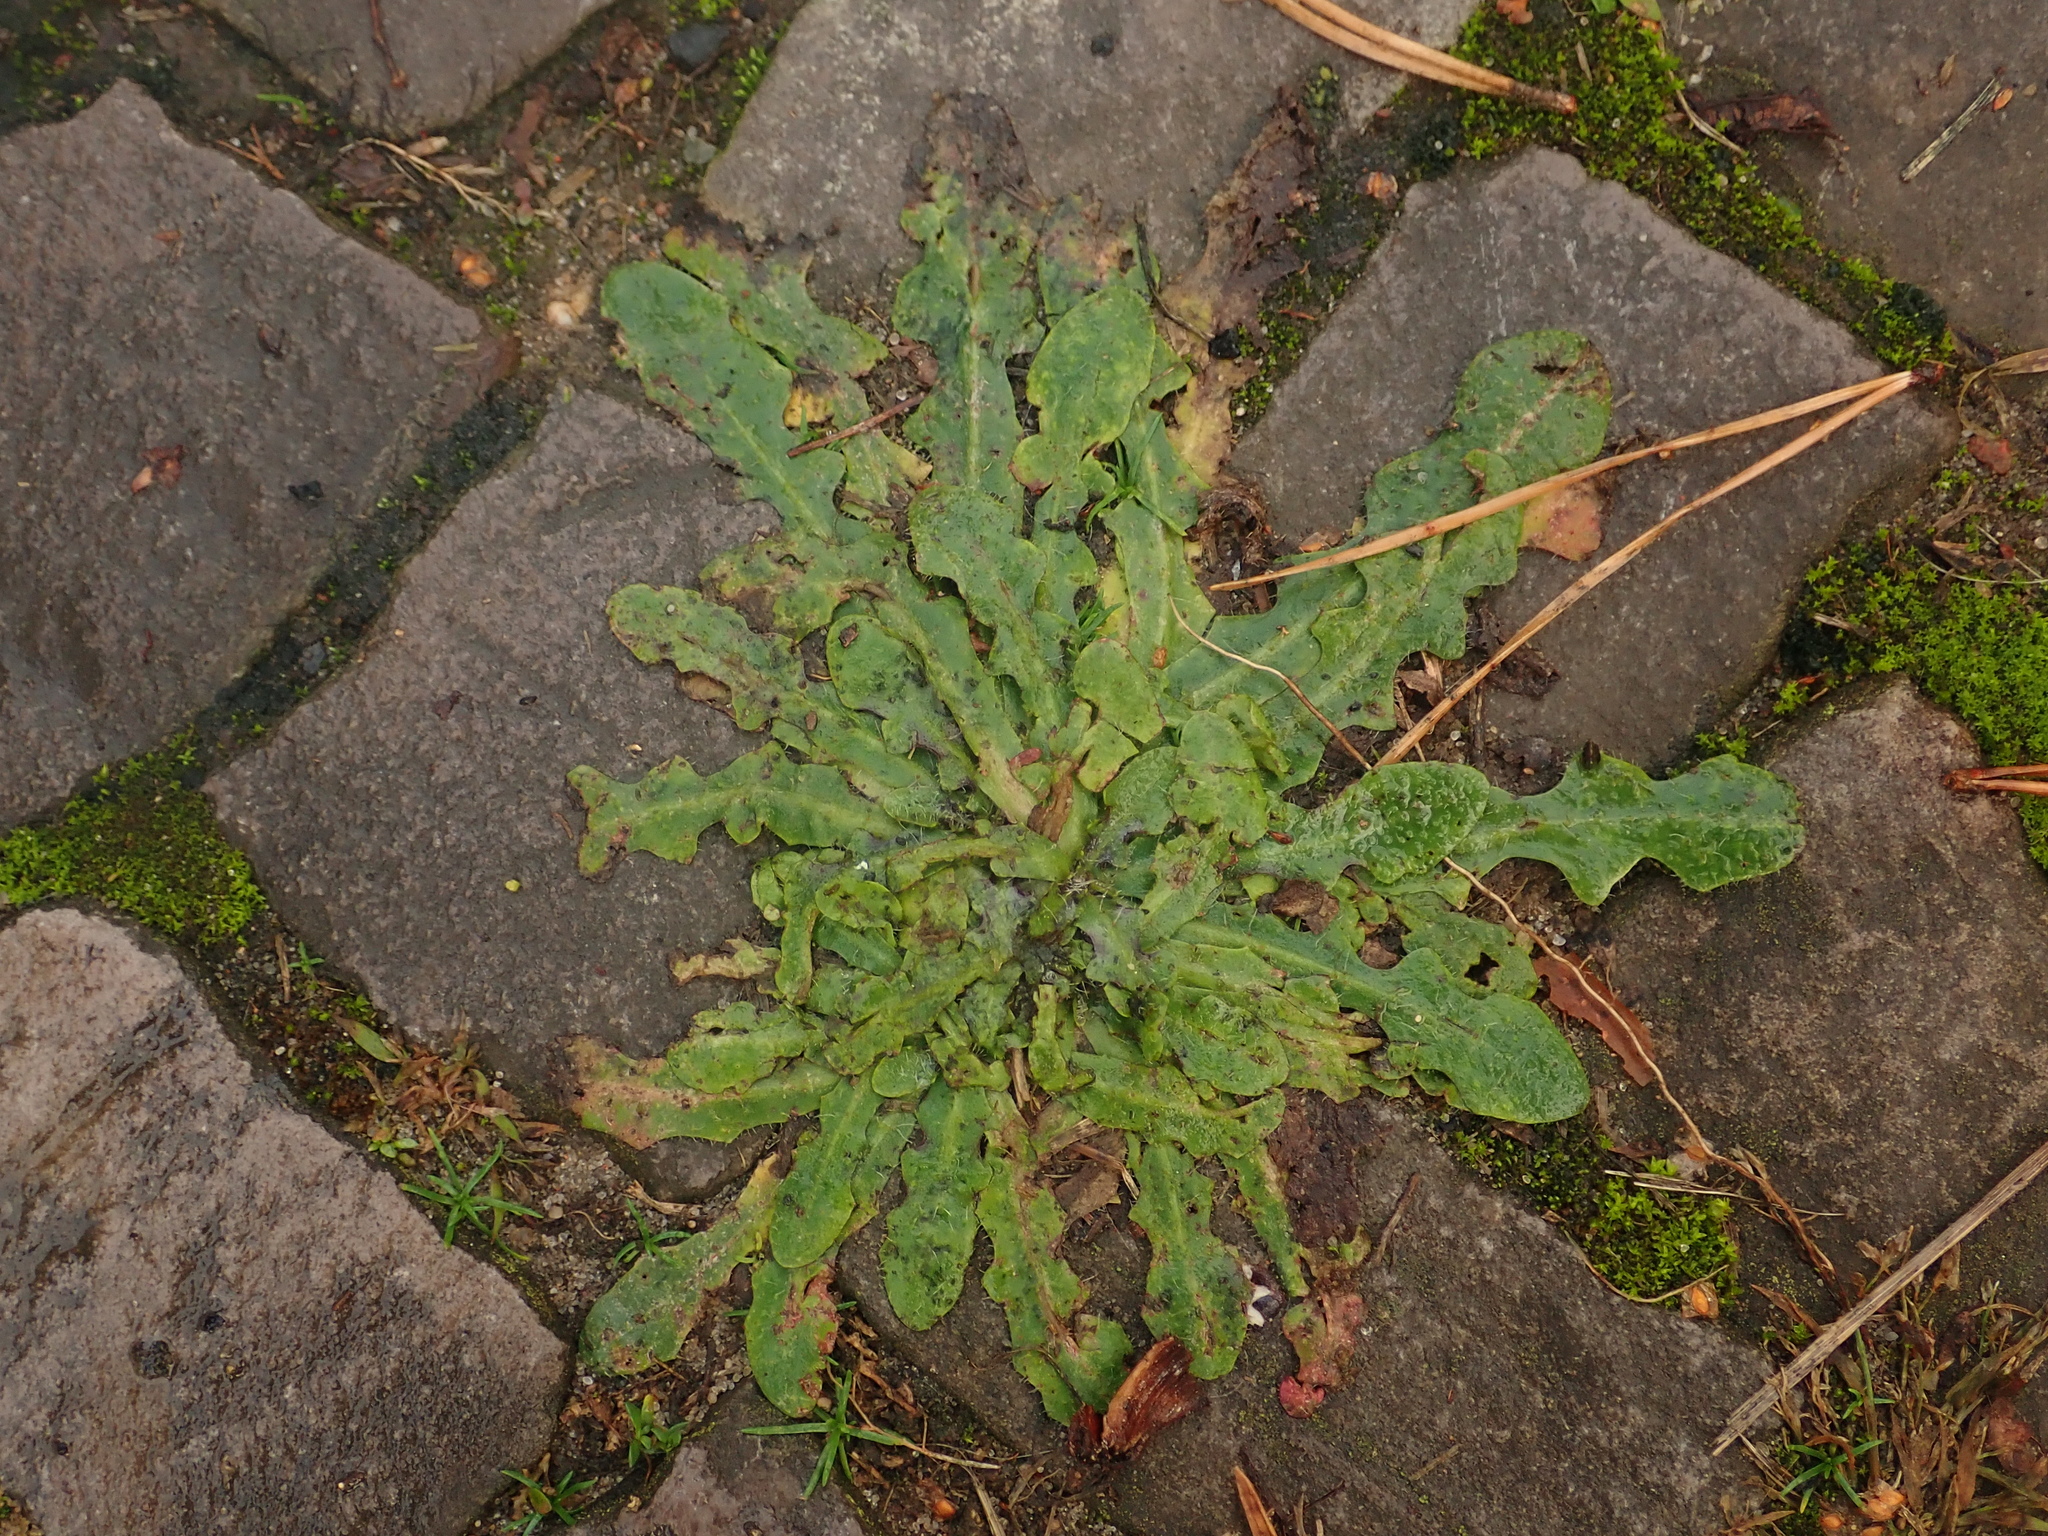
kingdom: Plantae
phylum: Tracheophyta
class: Magnoliopsida
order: Asterales
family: Asteraceae
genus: Hypochaeris
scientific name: Hypochaeris radicata
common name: Flatweed
